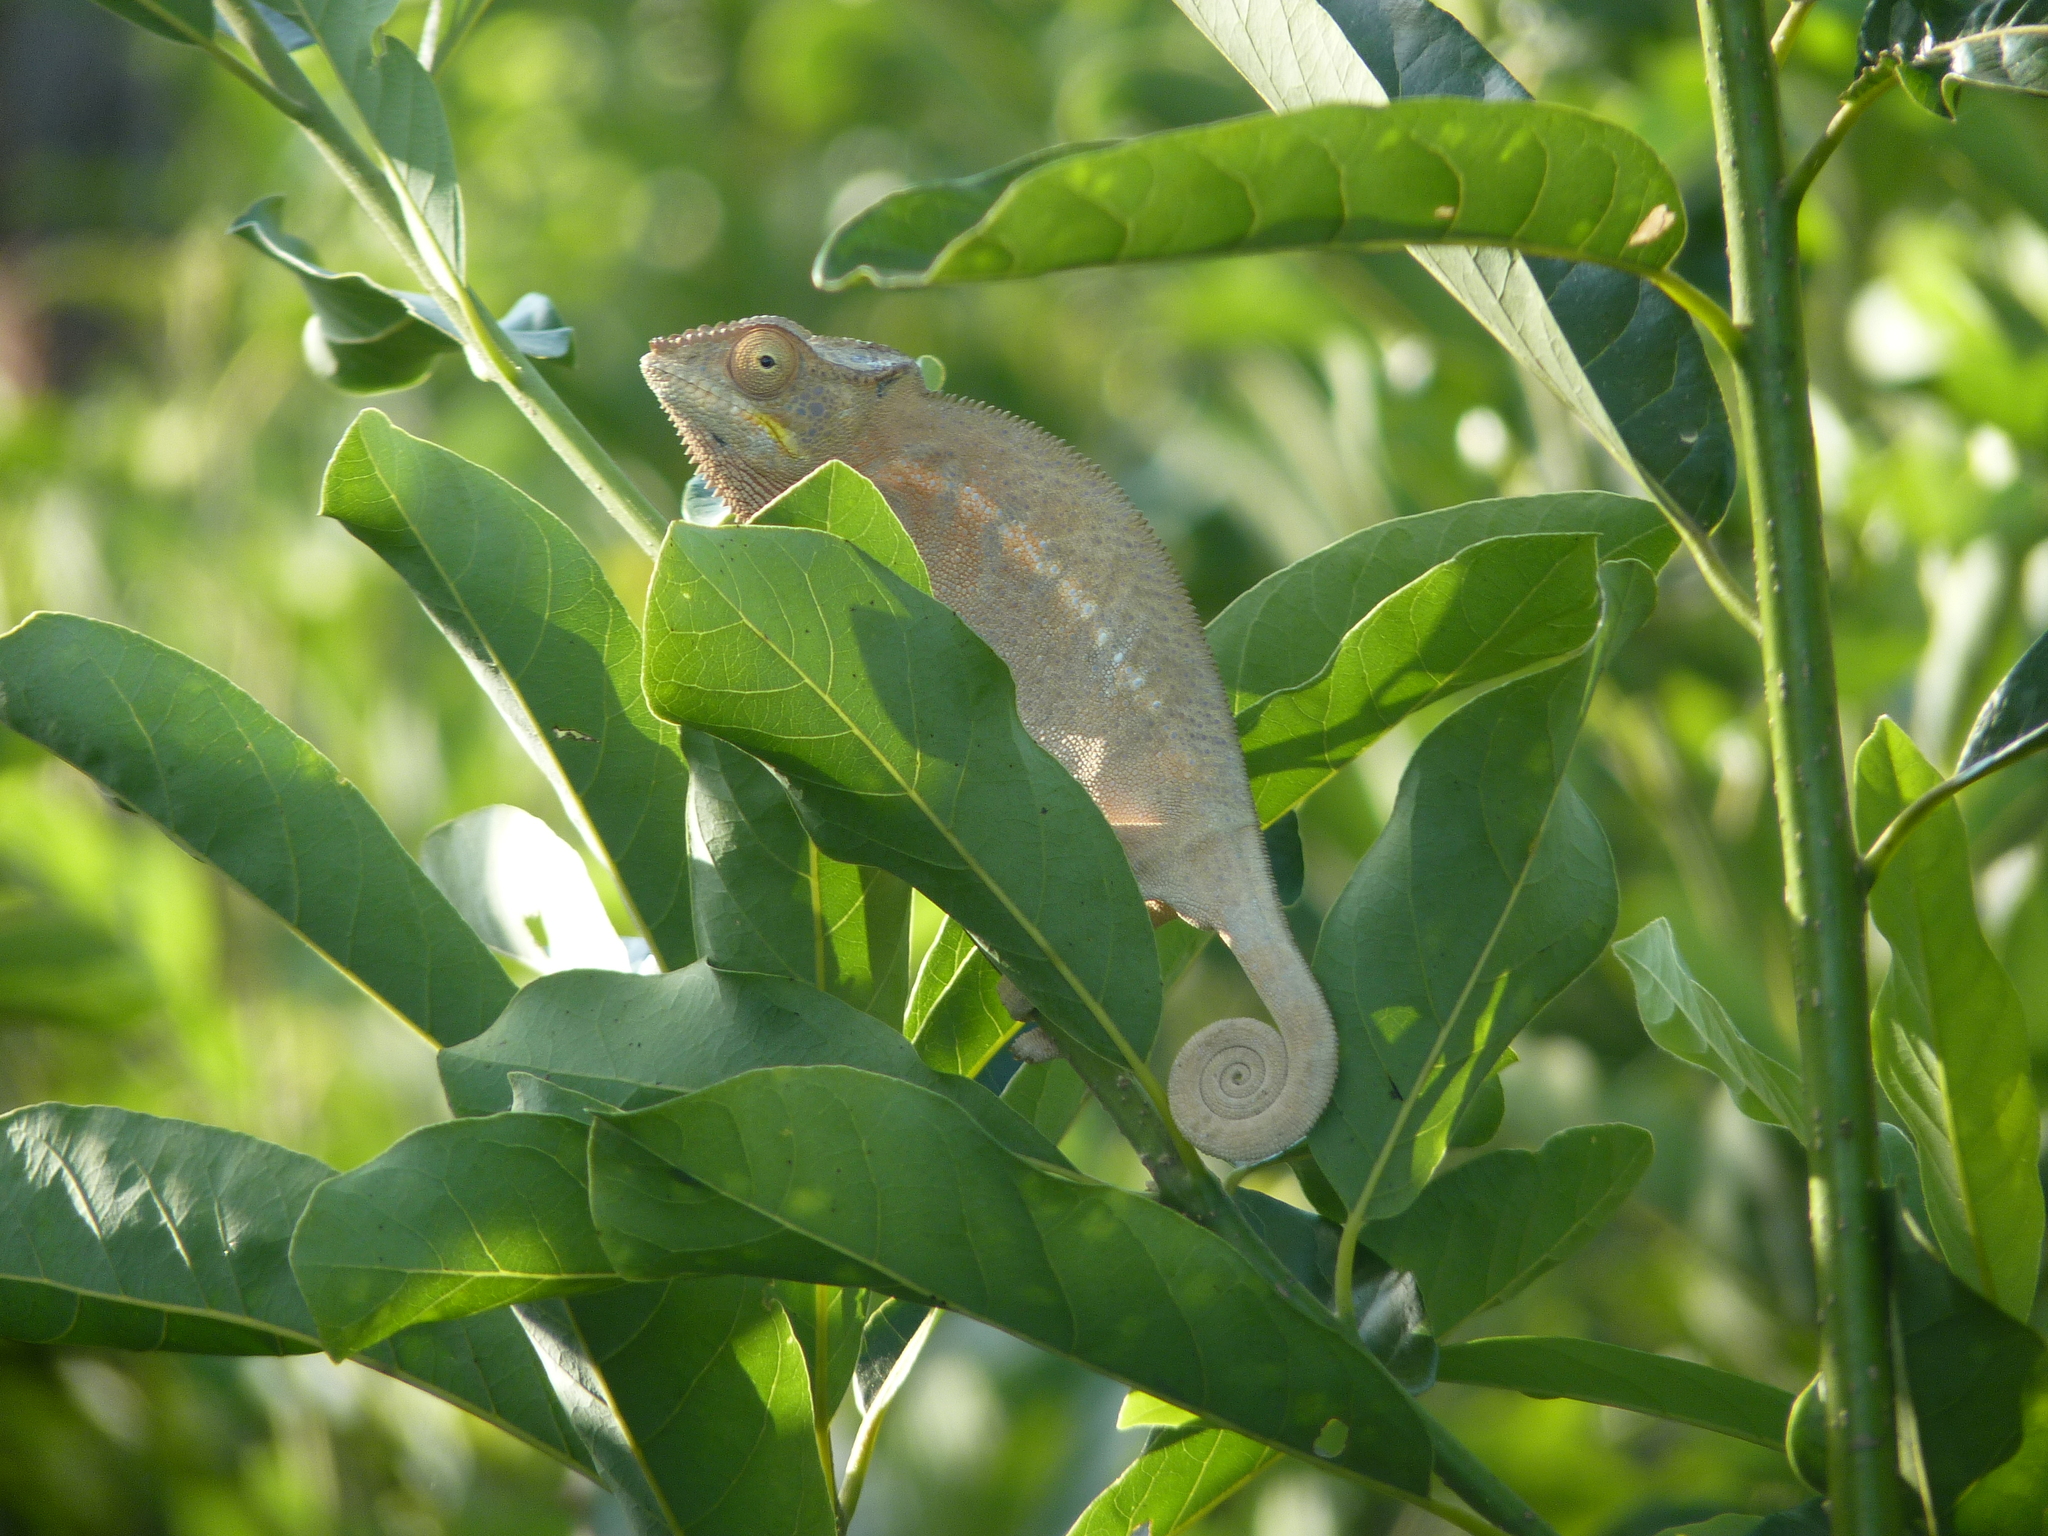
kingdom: Animalia
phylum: Chordata
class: Squamata
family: Chamaeleonidae
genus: Furcifer
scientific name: Furcifer pardalis
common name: Panther chameleon
